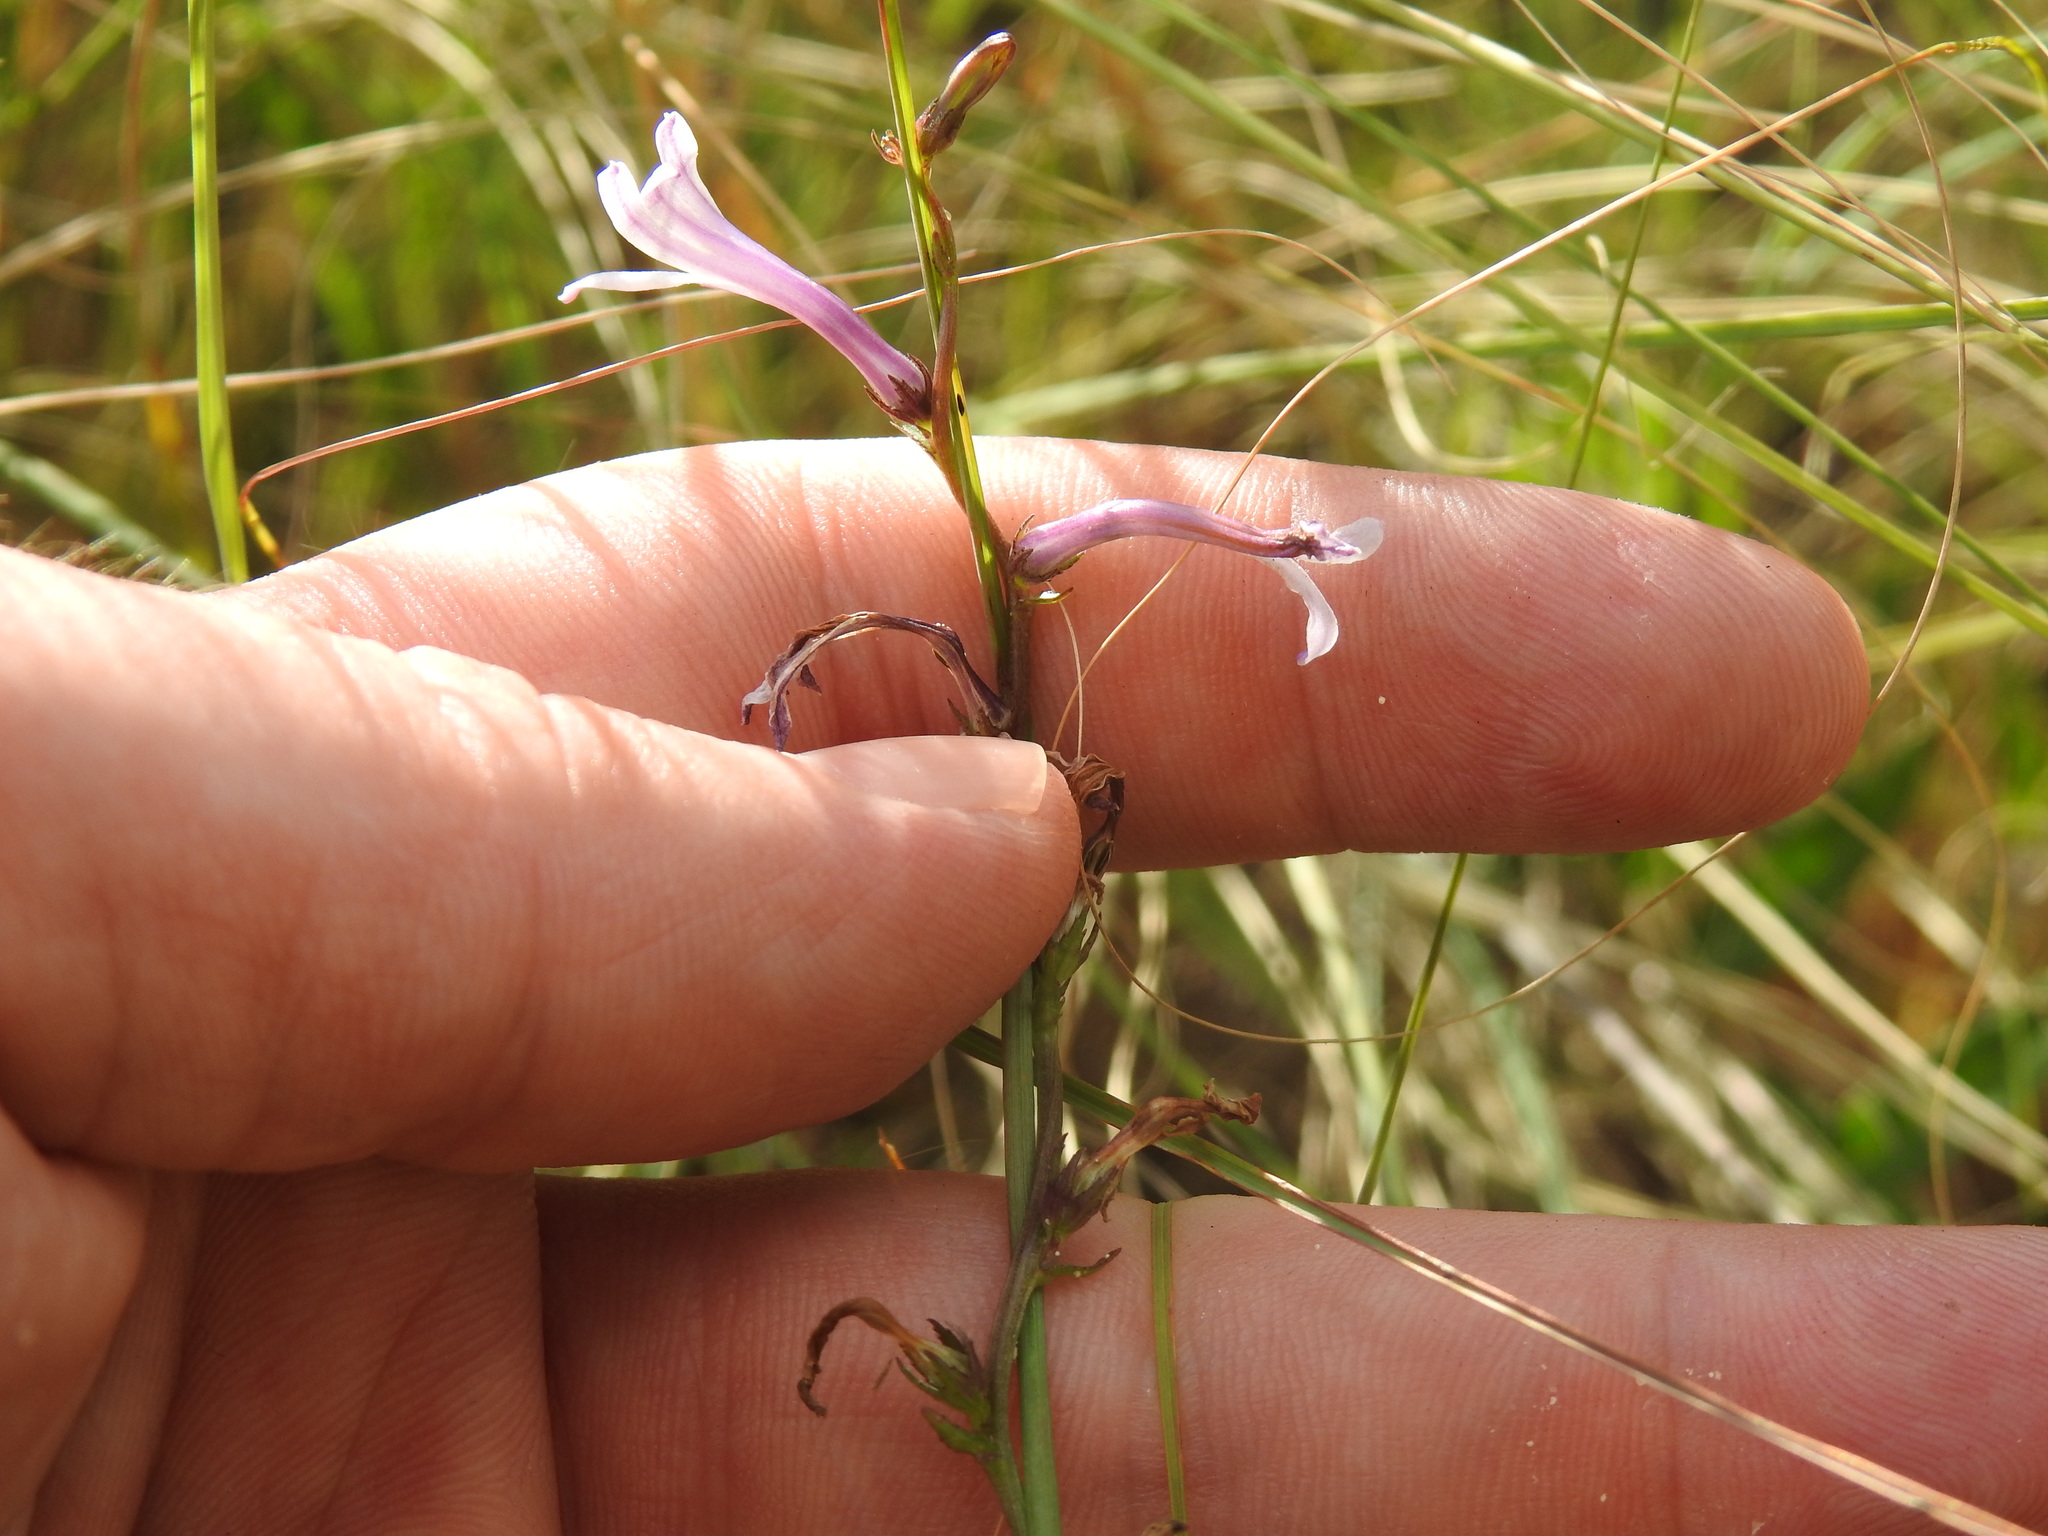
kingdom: Plantae
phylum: Tracheophyta
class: Magnoliopsida
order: Asterales
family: Campanulaceae
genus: Cyphia
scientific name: Cyphia stenopetala
